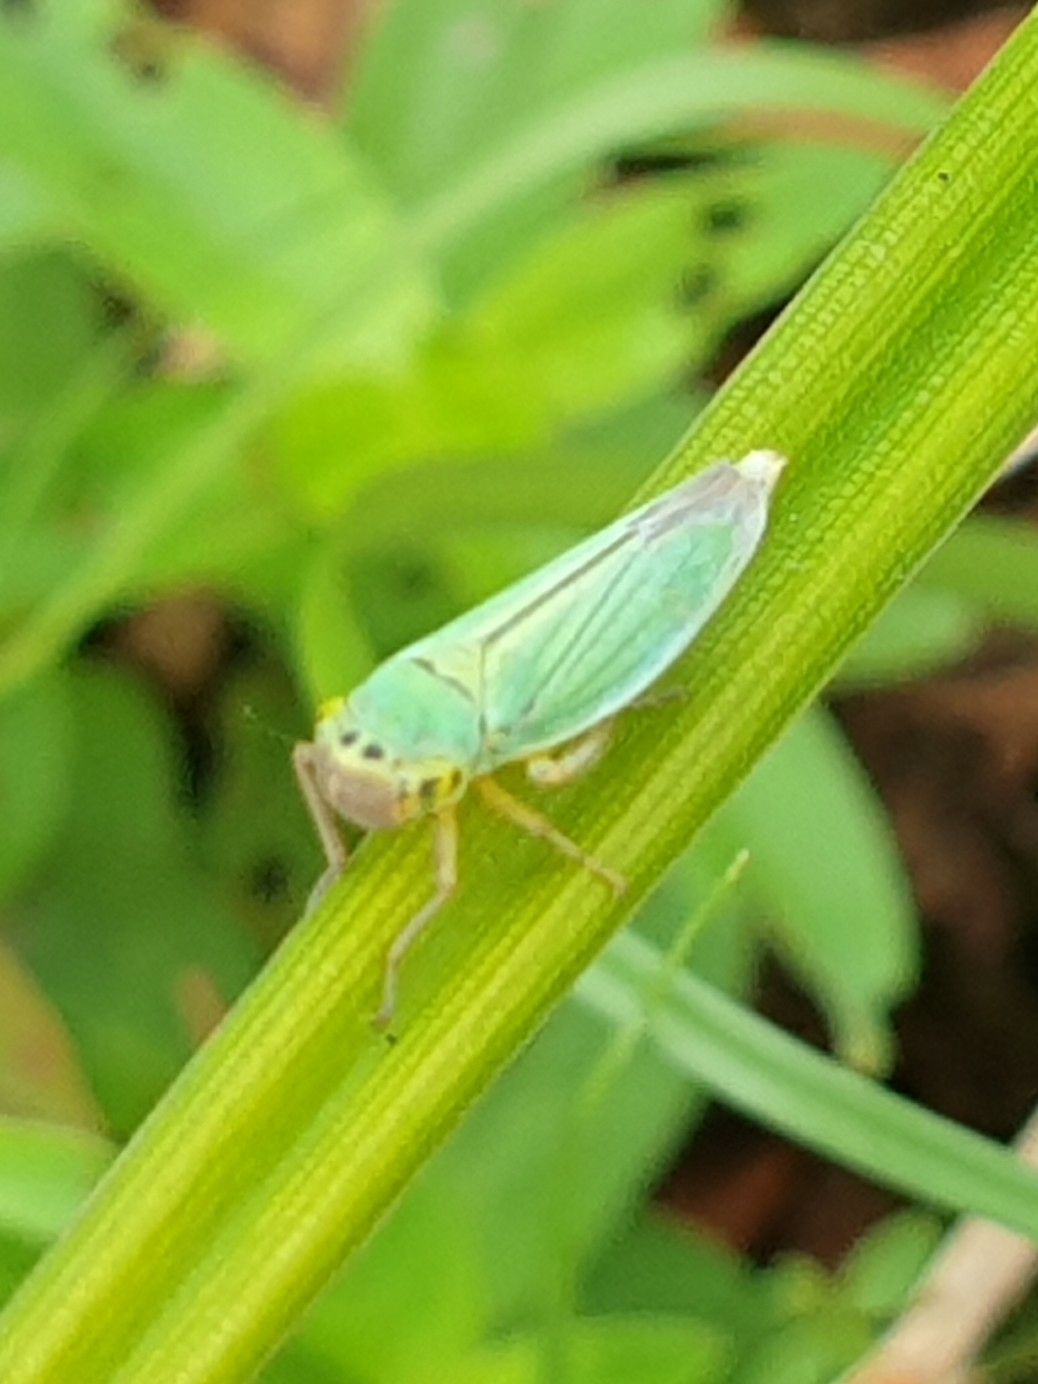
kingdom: Animalia
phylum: Arthropoda
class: Insecta
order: Hemiptera
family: Cicadellidae
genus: Cicadella
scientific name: Cicadella viridis
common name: Leafhopper
